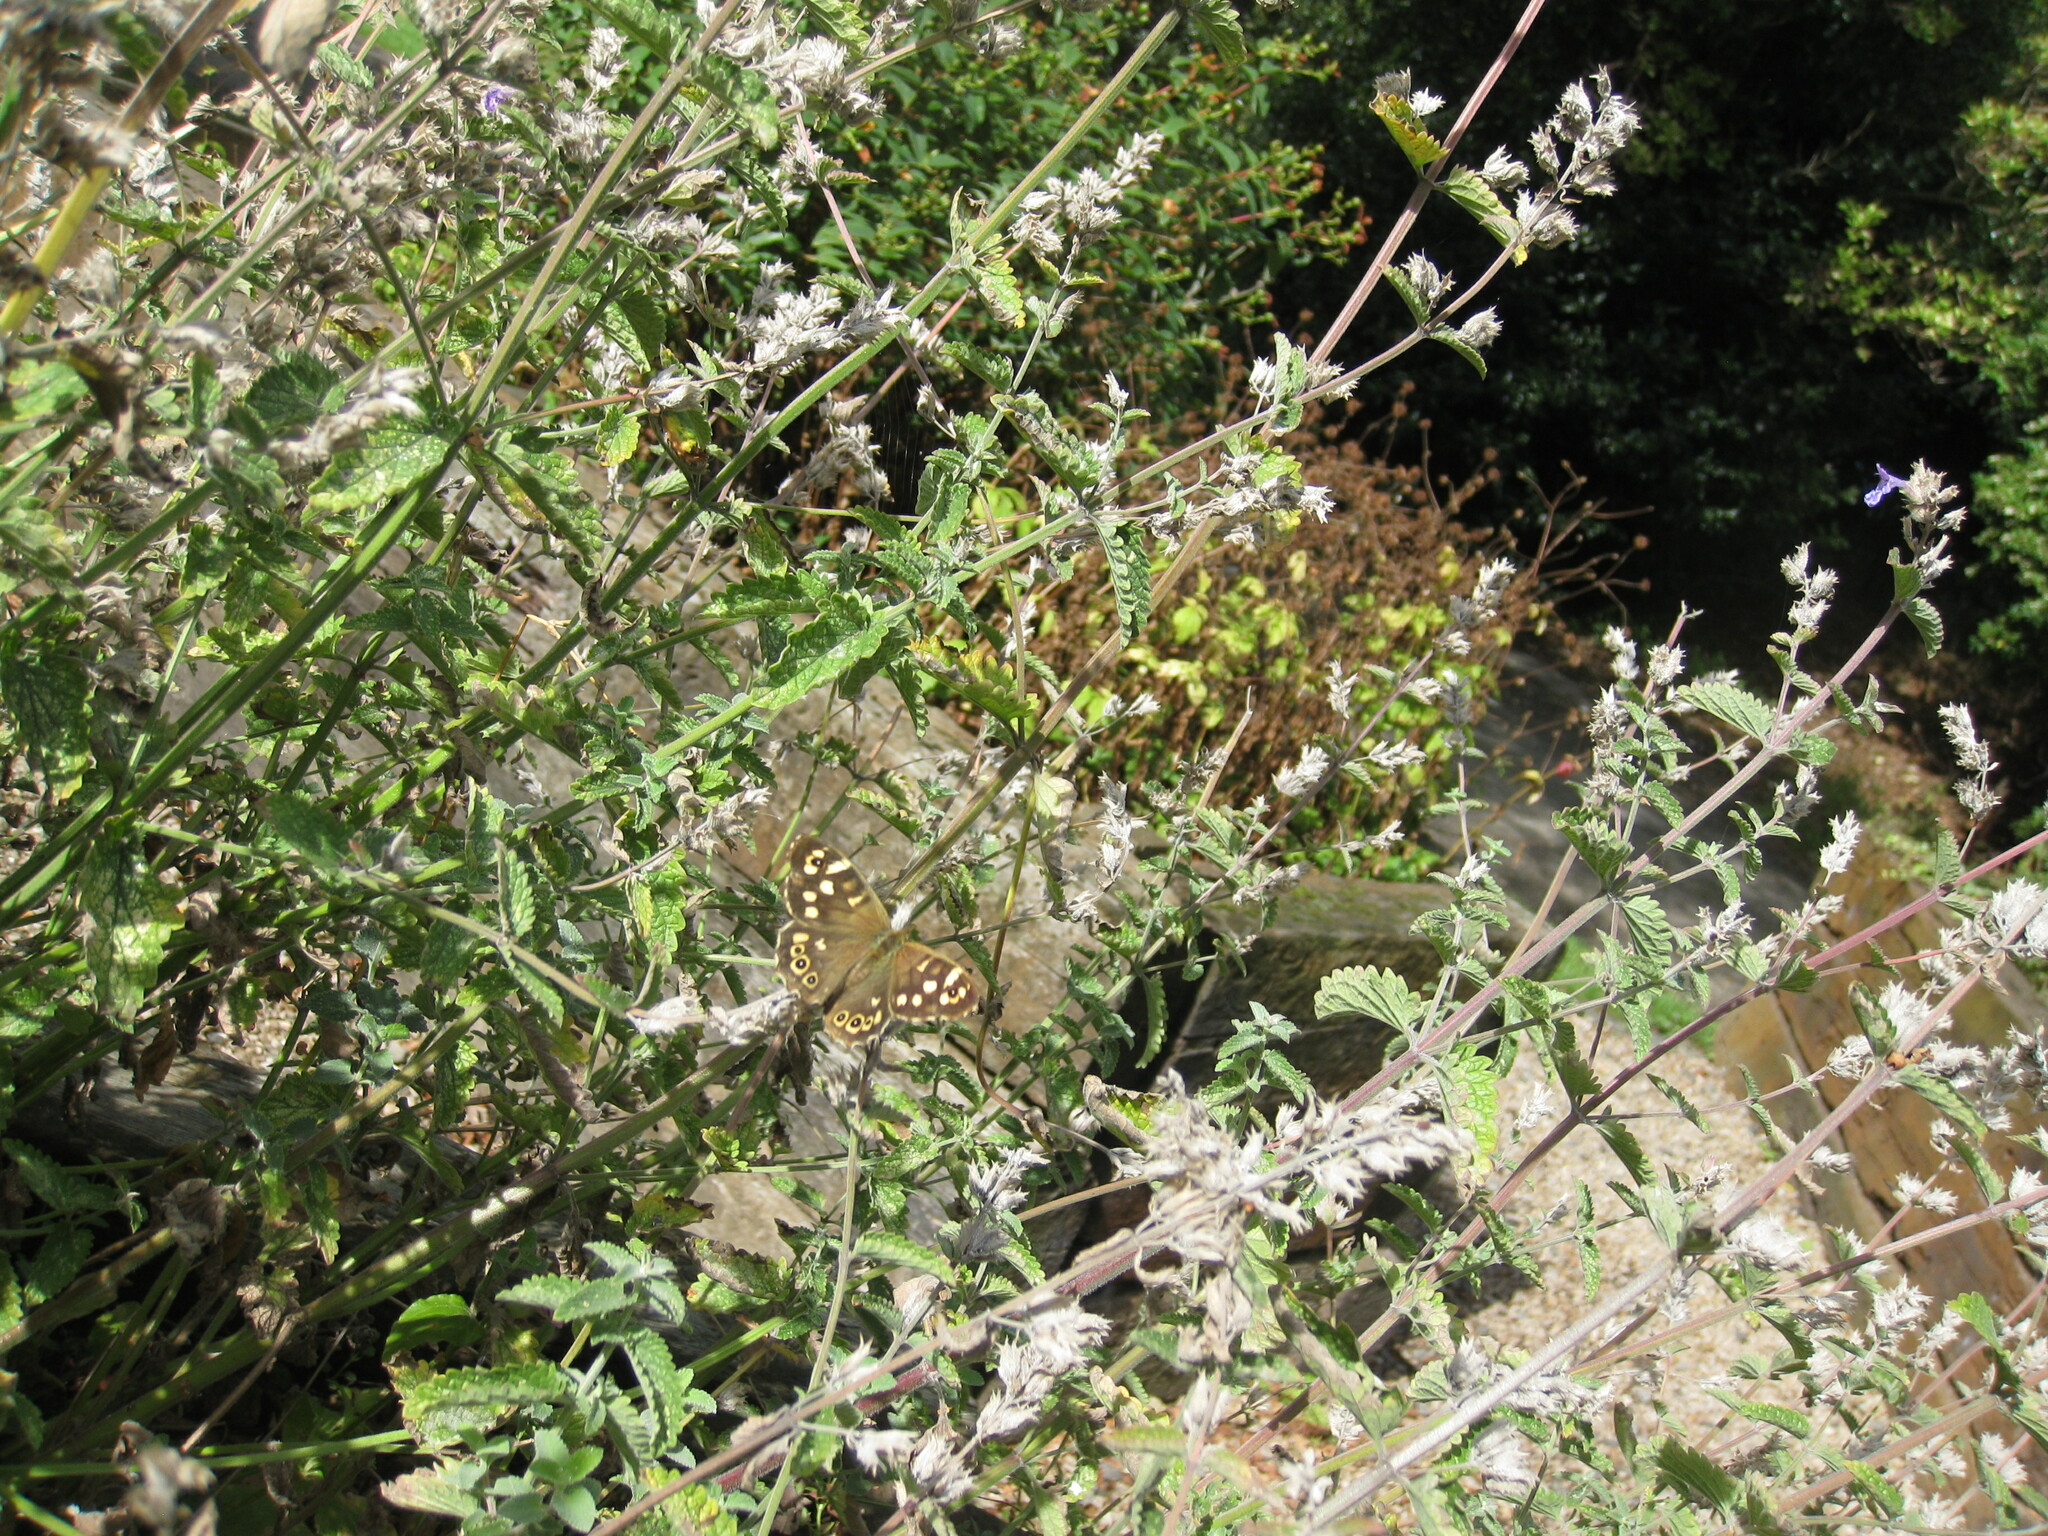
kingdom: Animalia
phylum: Arthropoda
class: Insecta
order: Lepidoptera
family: Nymphalidae
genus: Pararge
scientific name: Pararge aegeria
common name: Speckled wood
